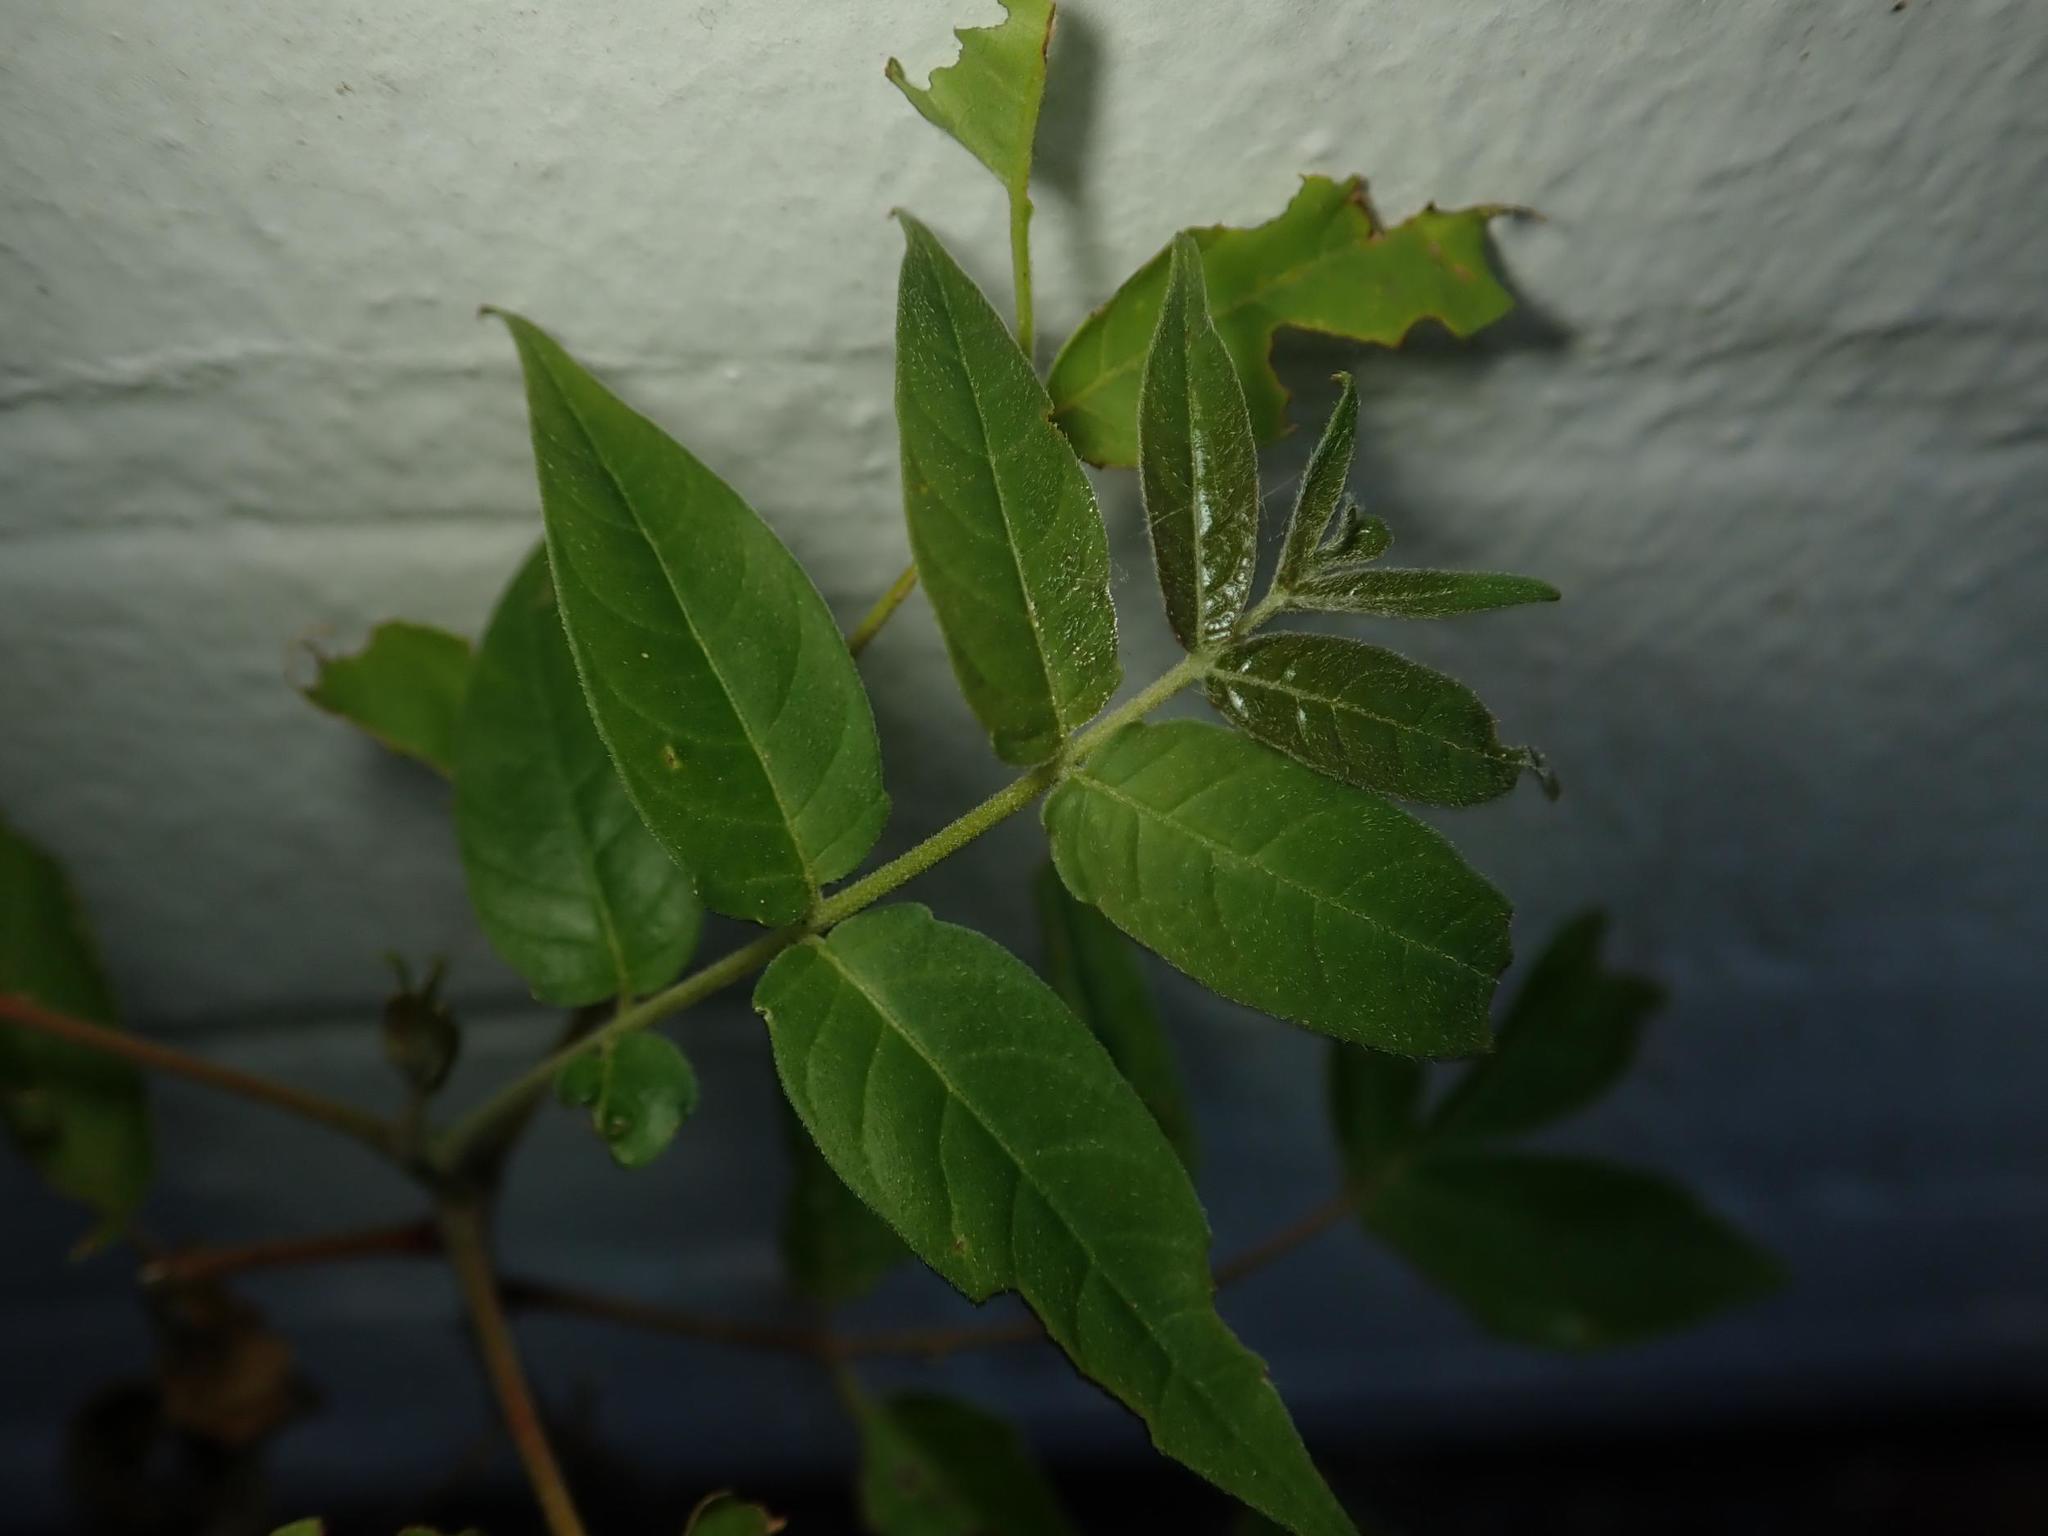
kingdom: Plantae
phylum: Tracheophyta
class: Magnoliopsida
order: Sapindales
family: Simaroubaceae
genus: Ailanthus
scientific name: Ailanthus altissima
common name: Tree-of-heaven
